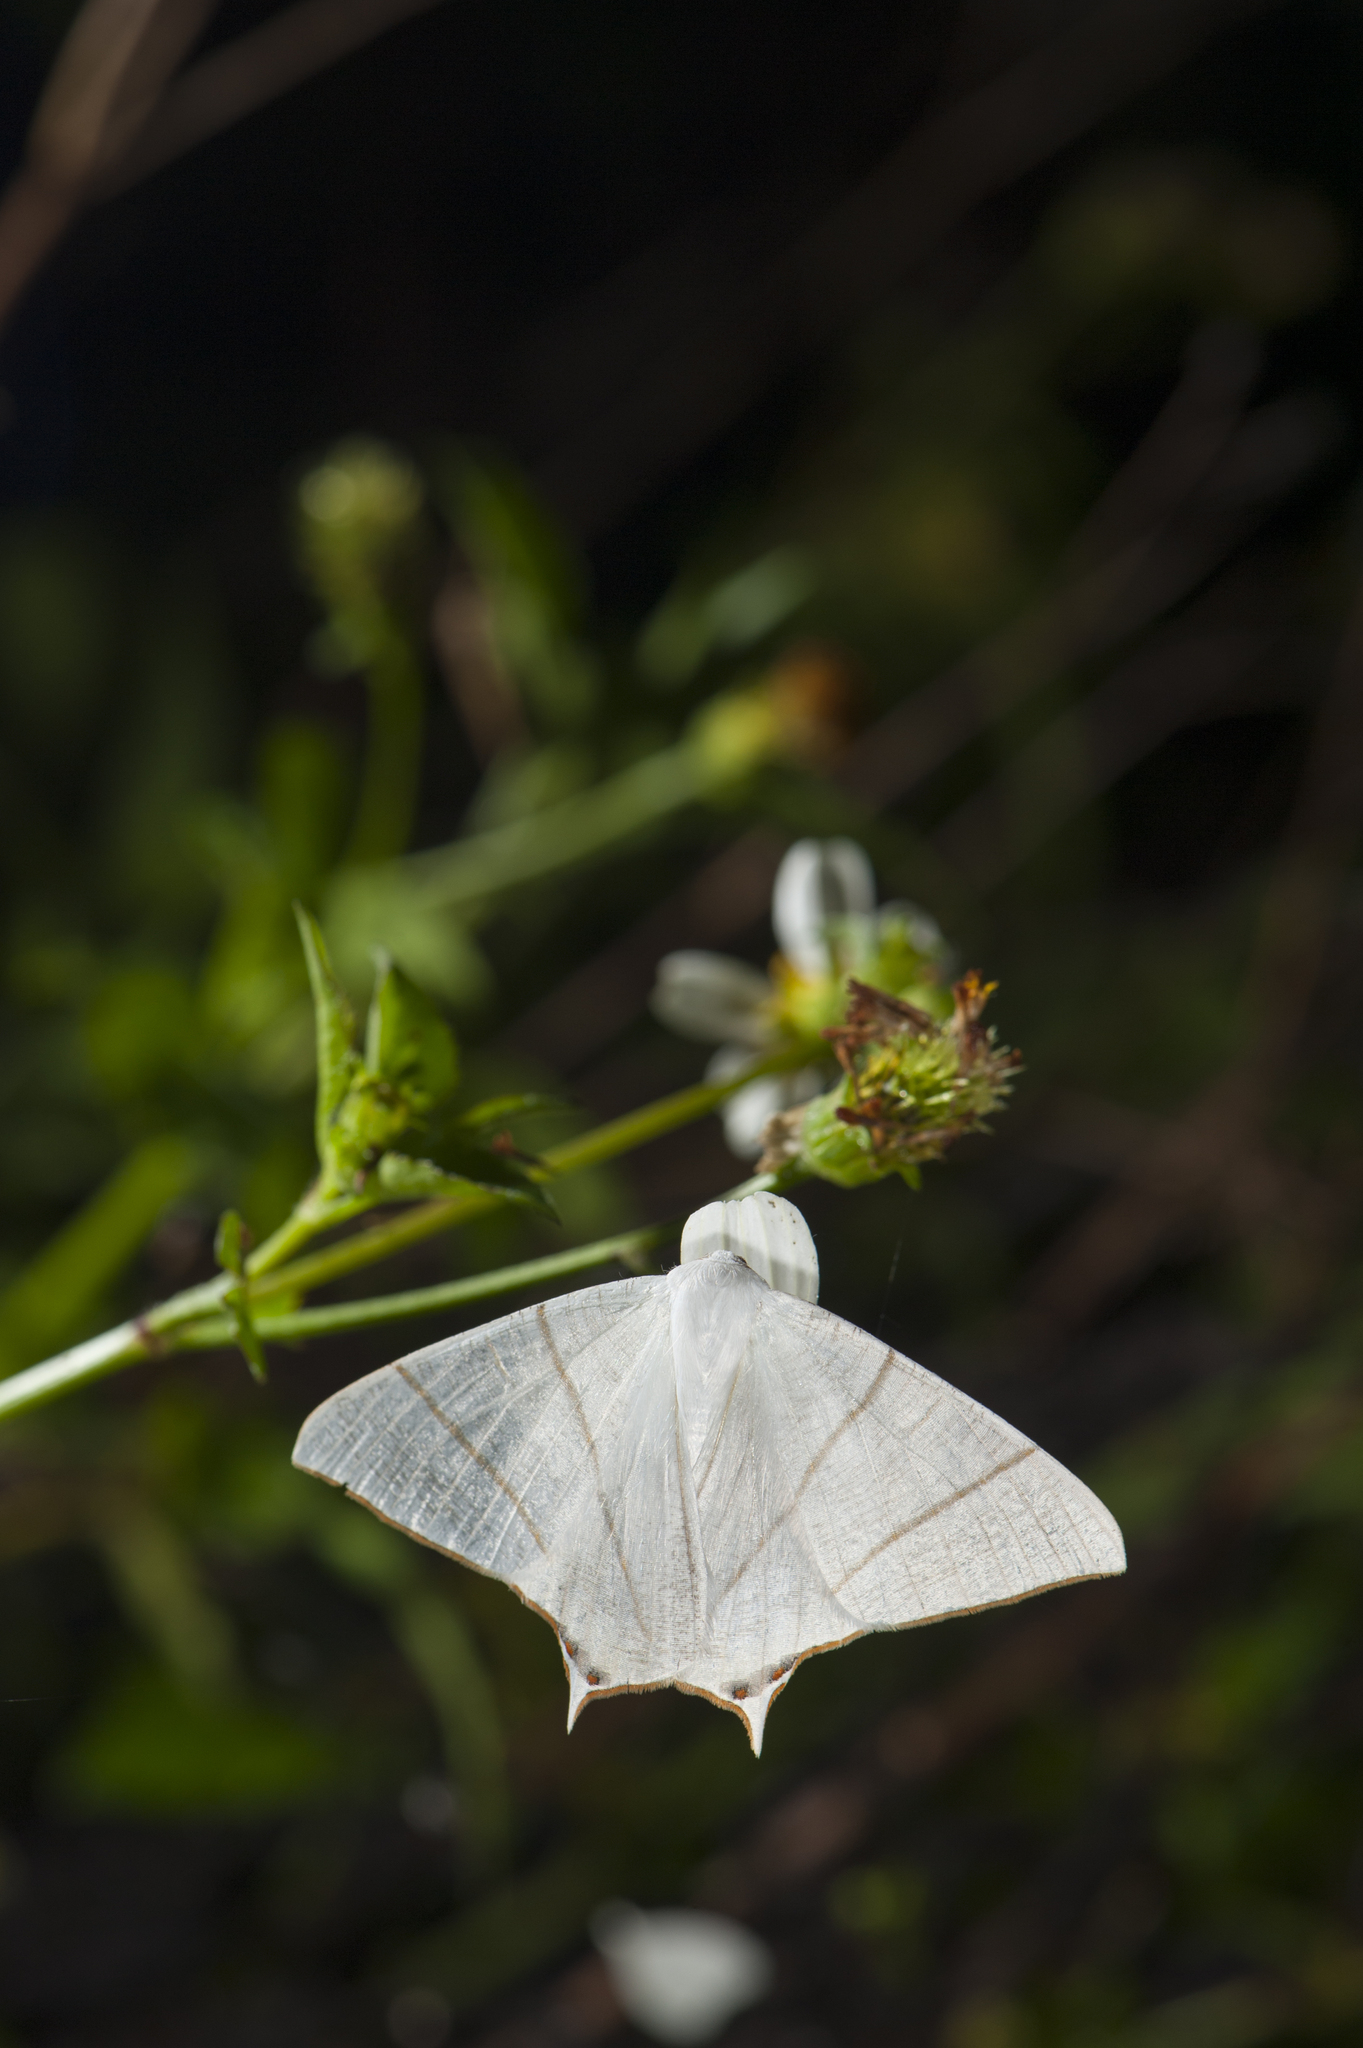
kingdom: Animalia
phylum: Arthropoda
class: Insecta
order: Lepidoptera
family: Geometridae
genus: Ourapteryx
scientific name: Ourapteryx changi
